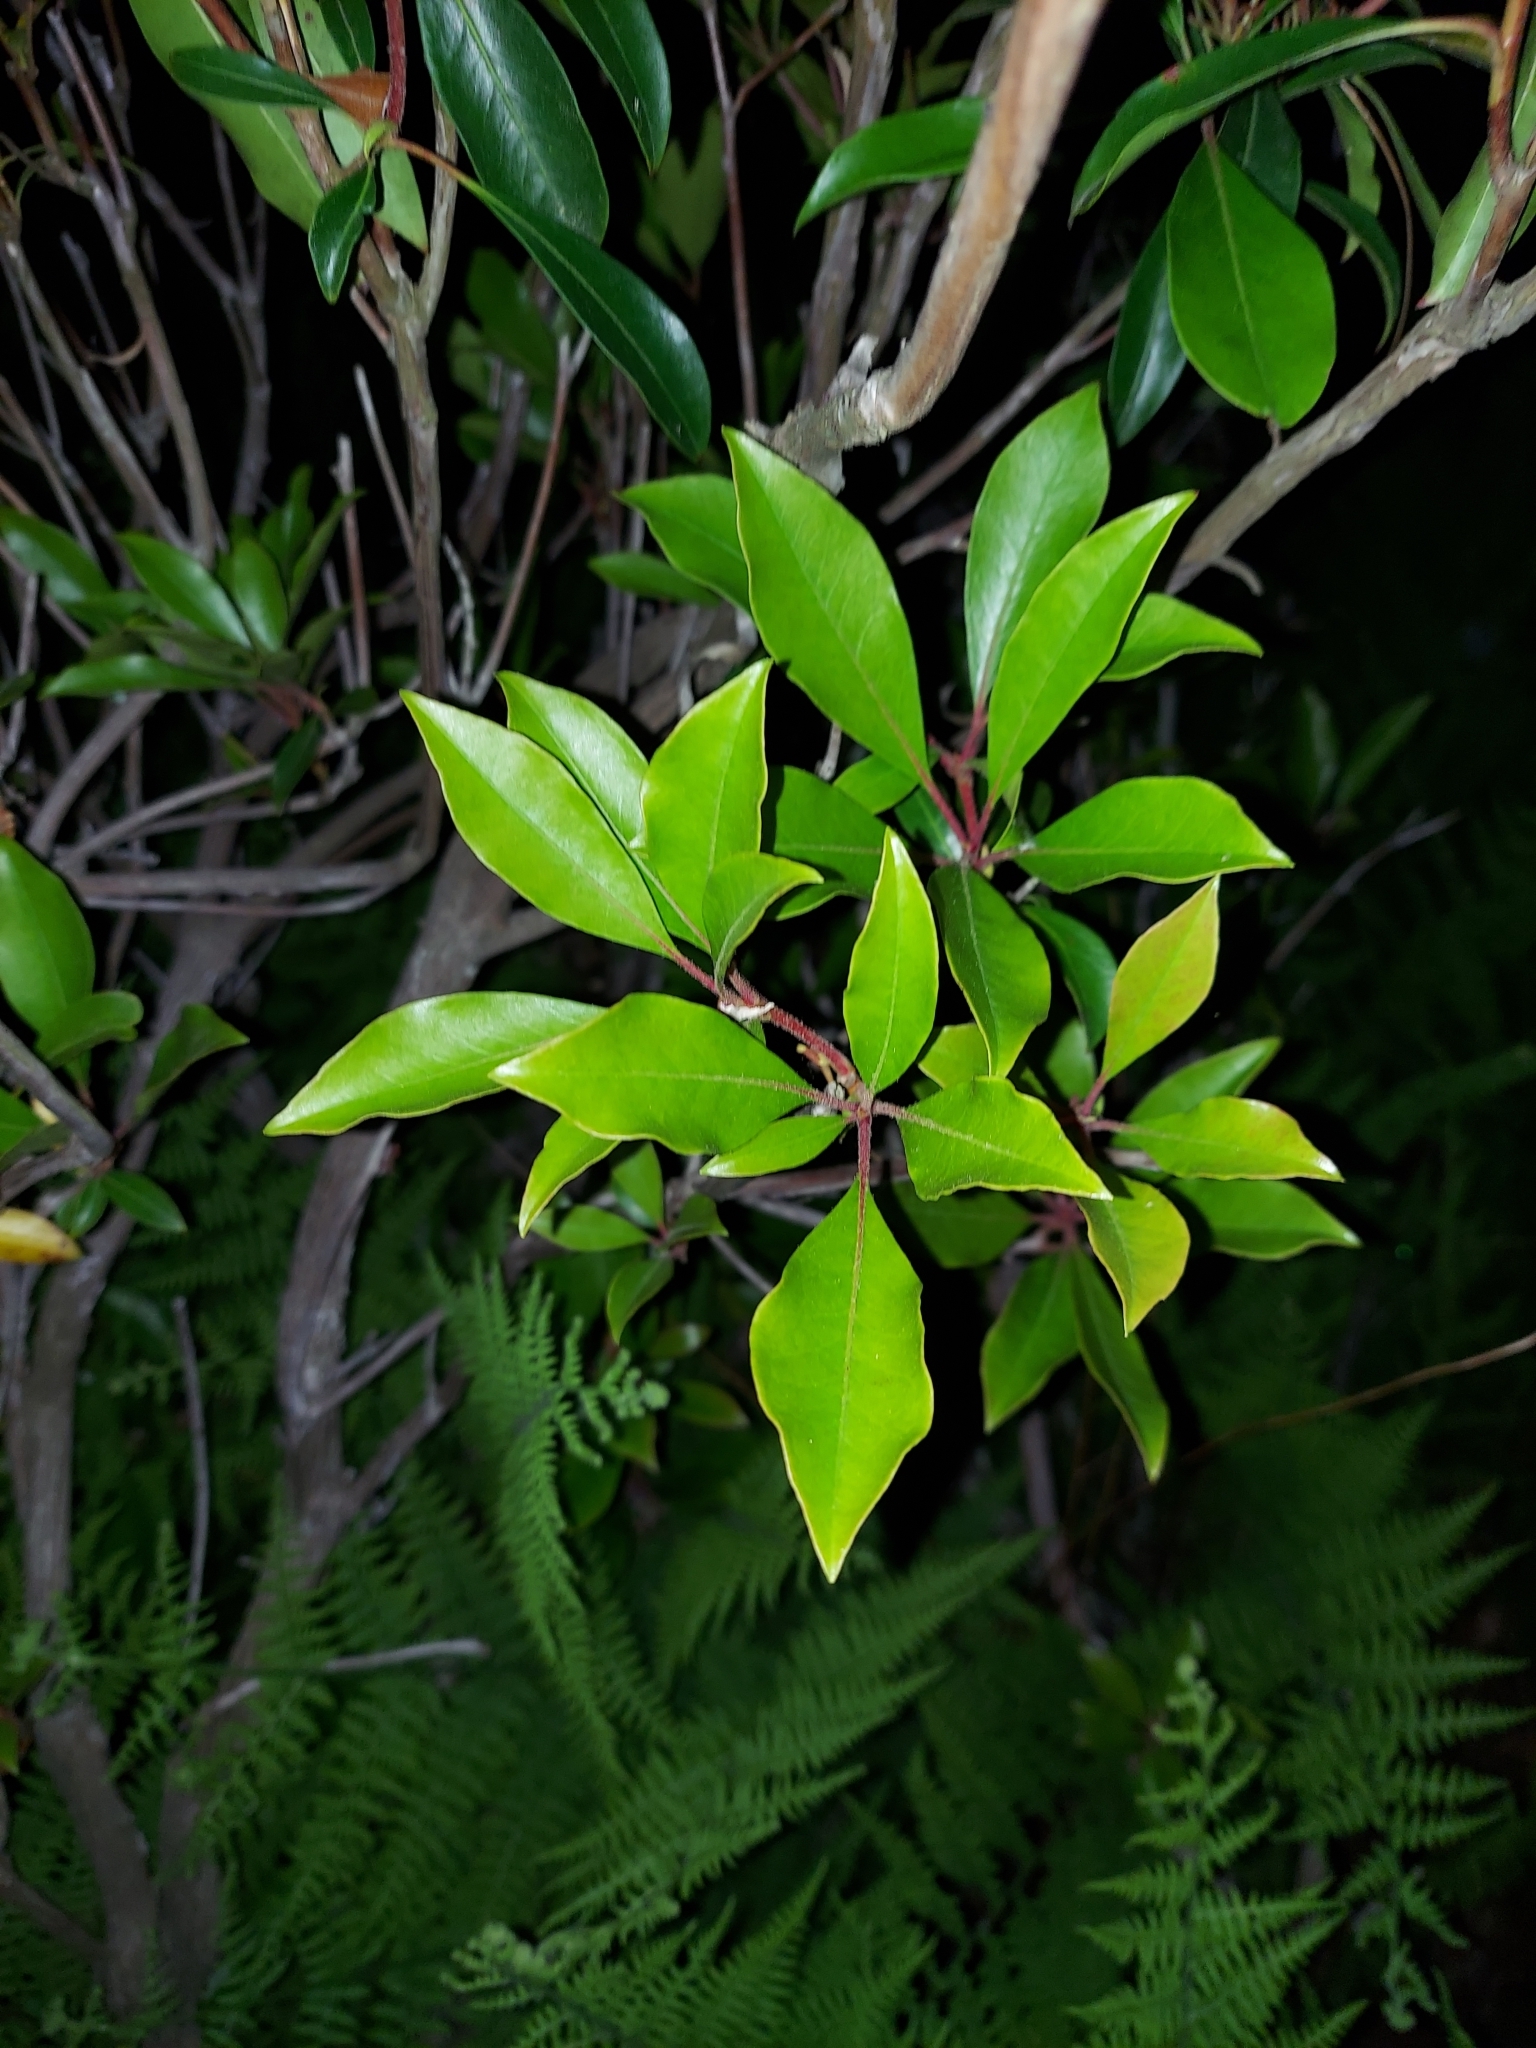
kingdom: Plantae
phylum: Tracheophyta
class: Magnoliopsida
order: Ericales
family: Ericaceae
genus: Kalmia
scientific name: Kalmia latifolia
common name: Mountain-laurel
